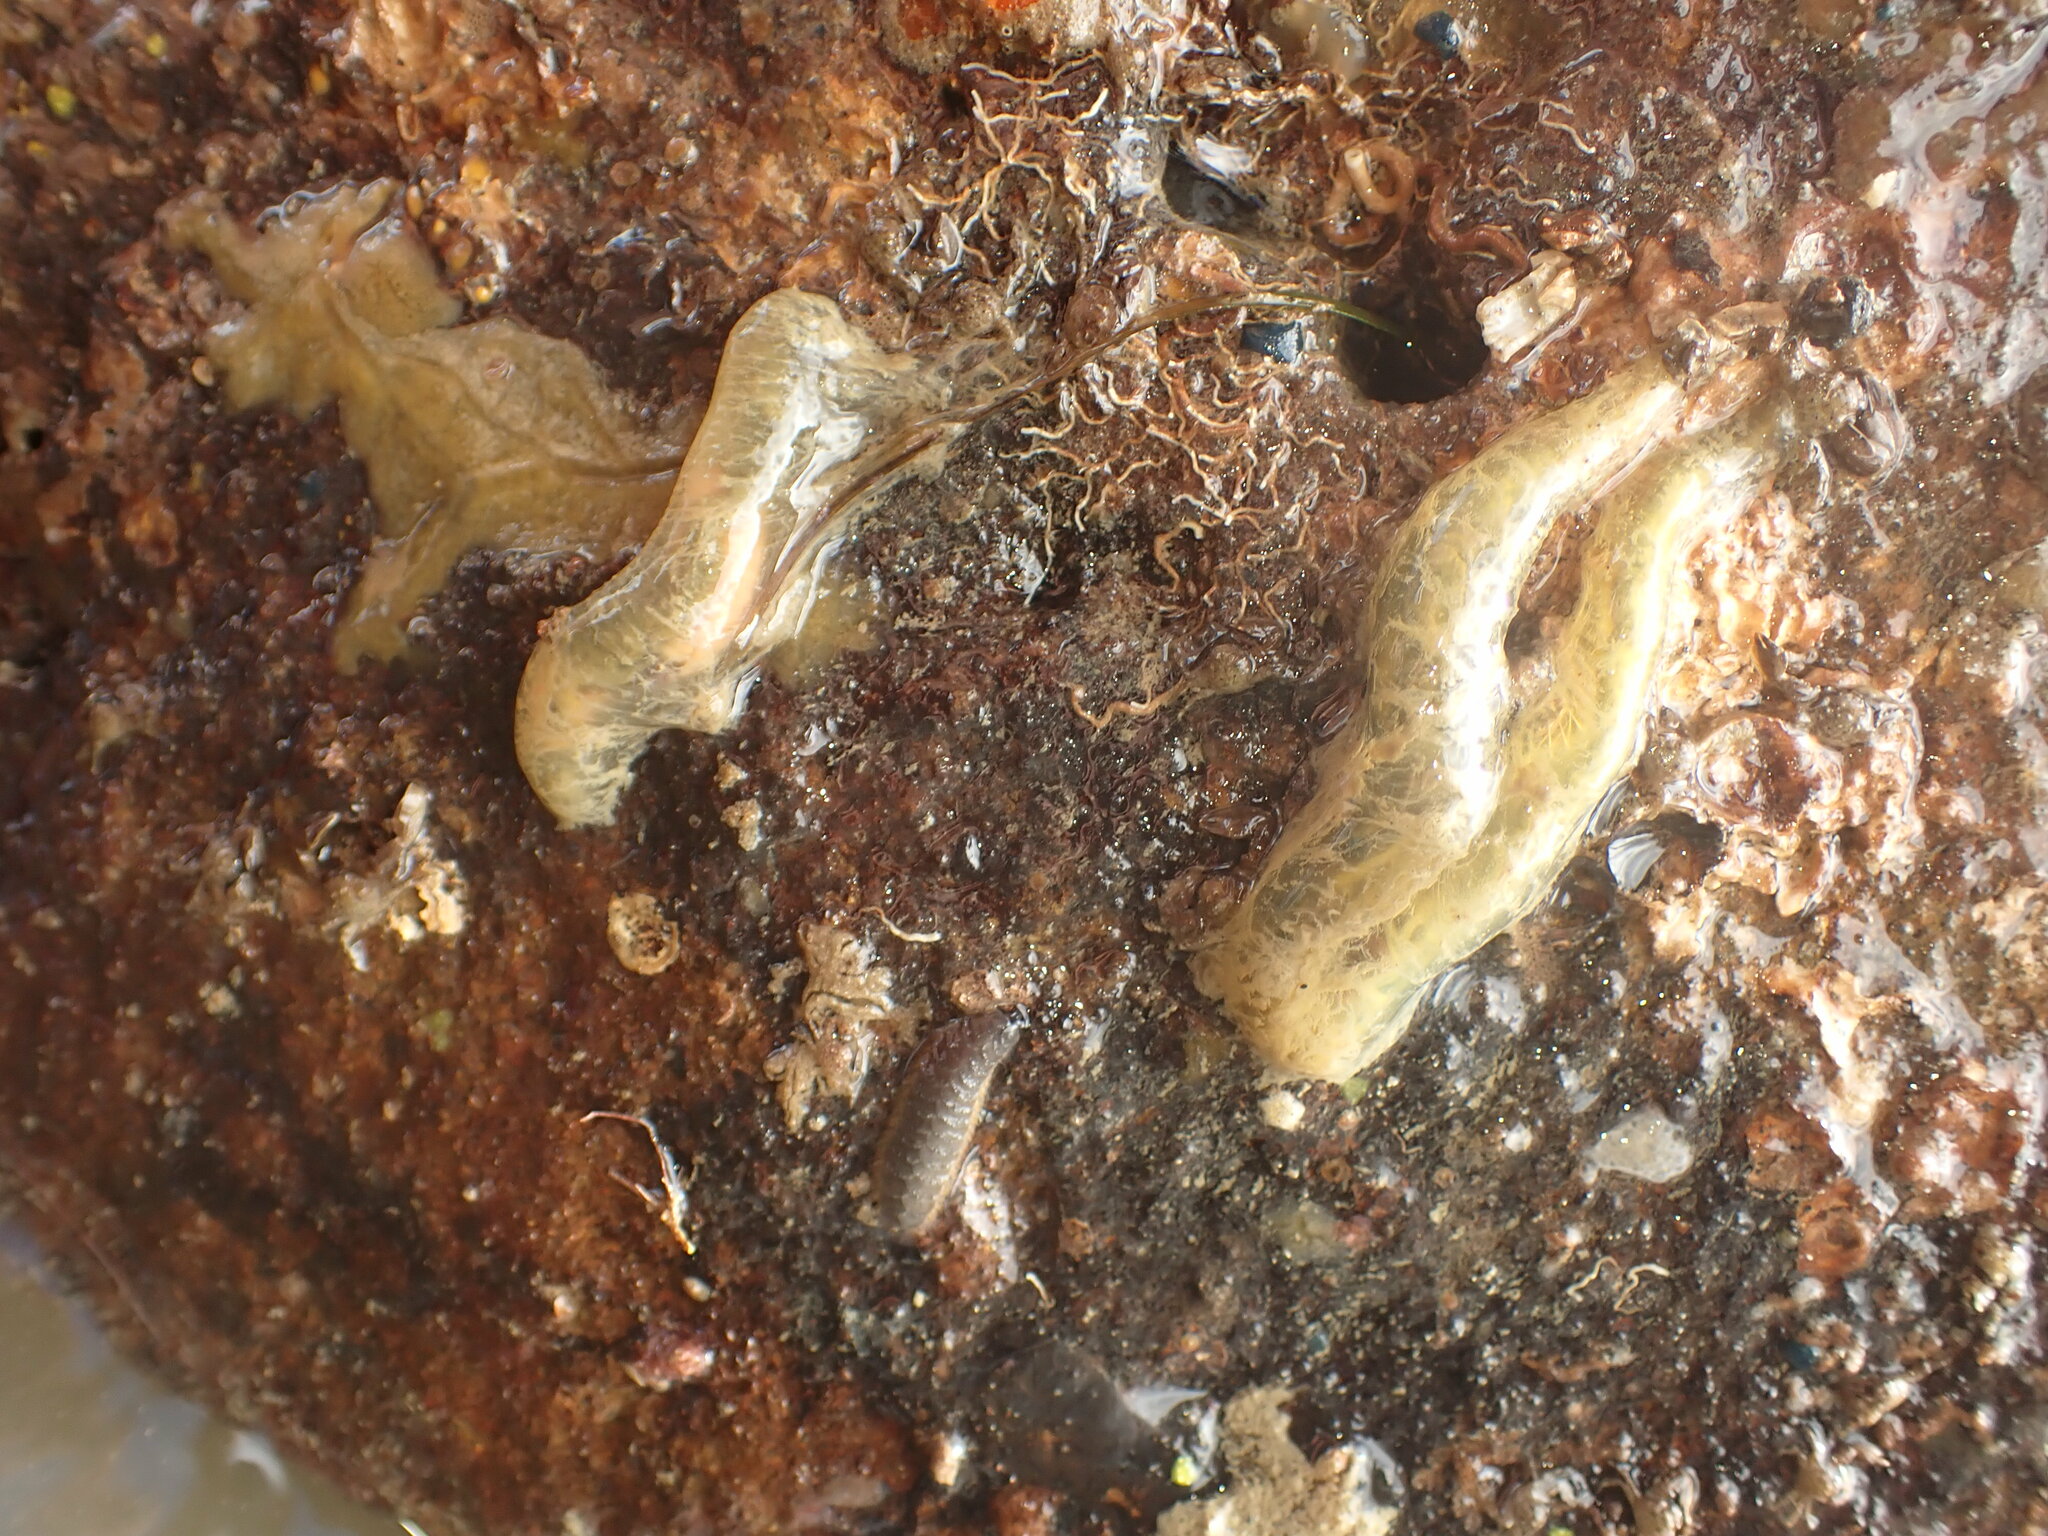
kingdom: Animalia
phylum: Annelida
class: Polychaeta
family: Flabelligeridae
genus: Flabelligera
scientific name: Flabelligera bicolor
